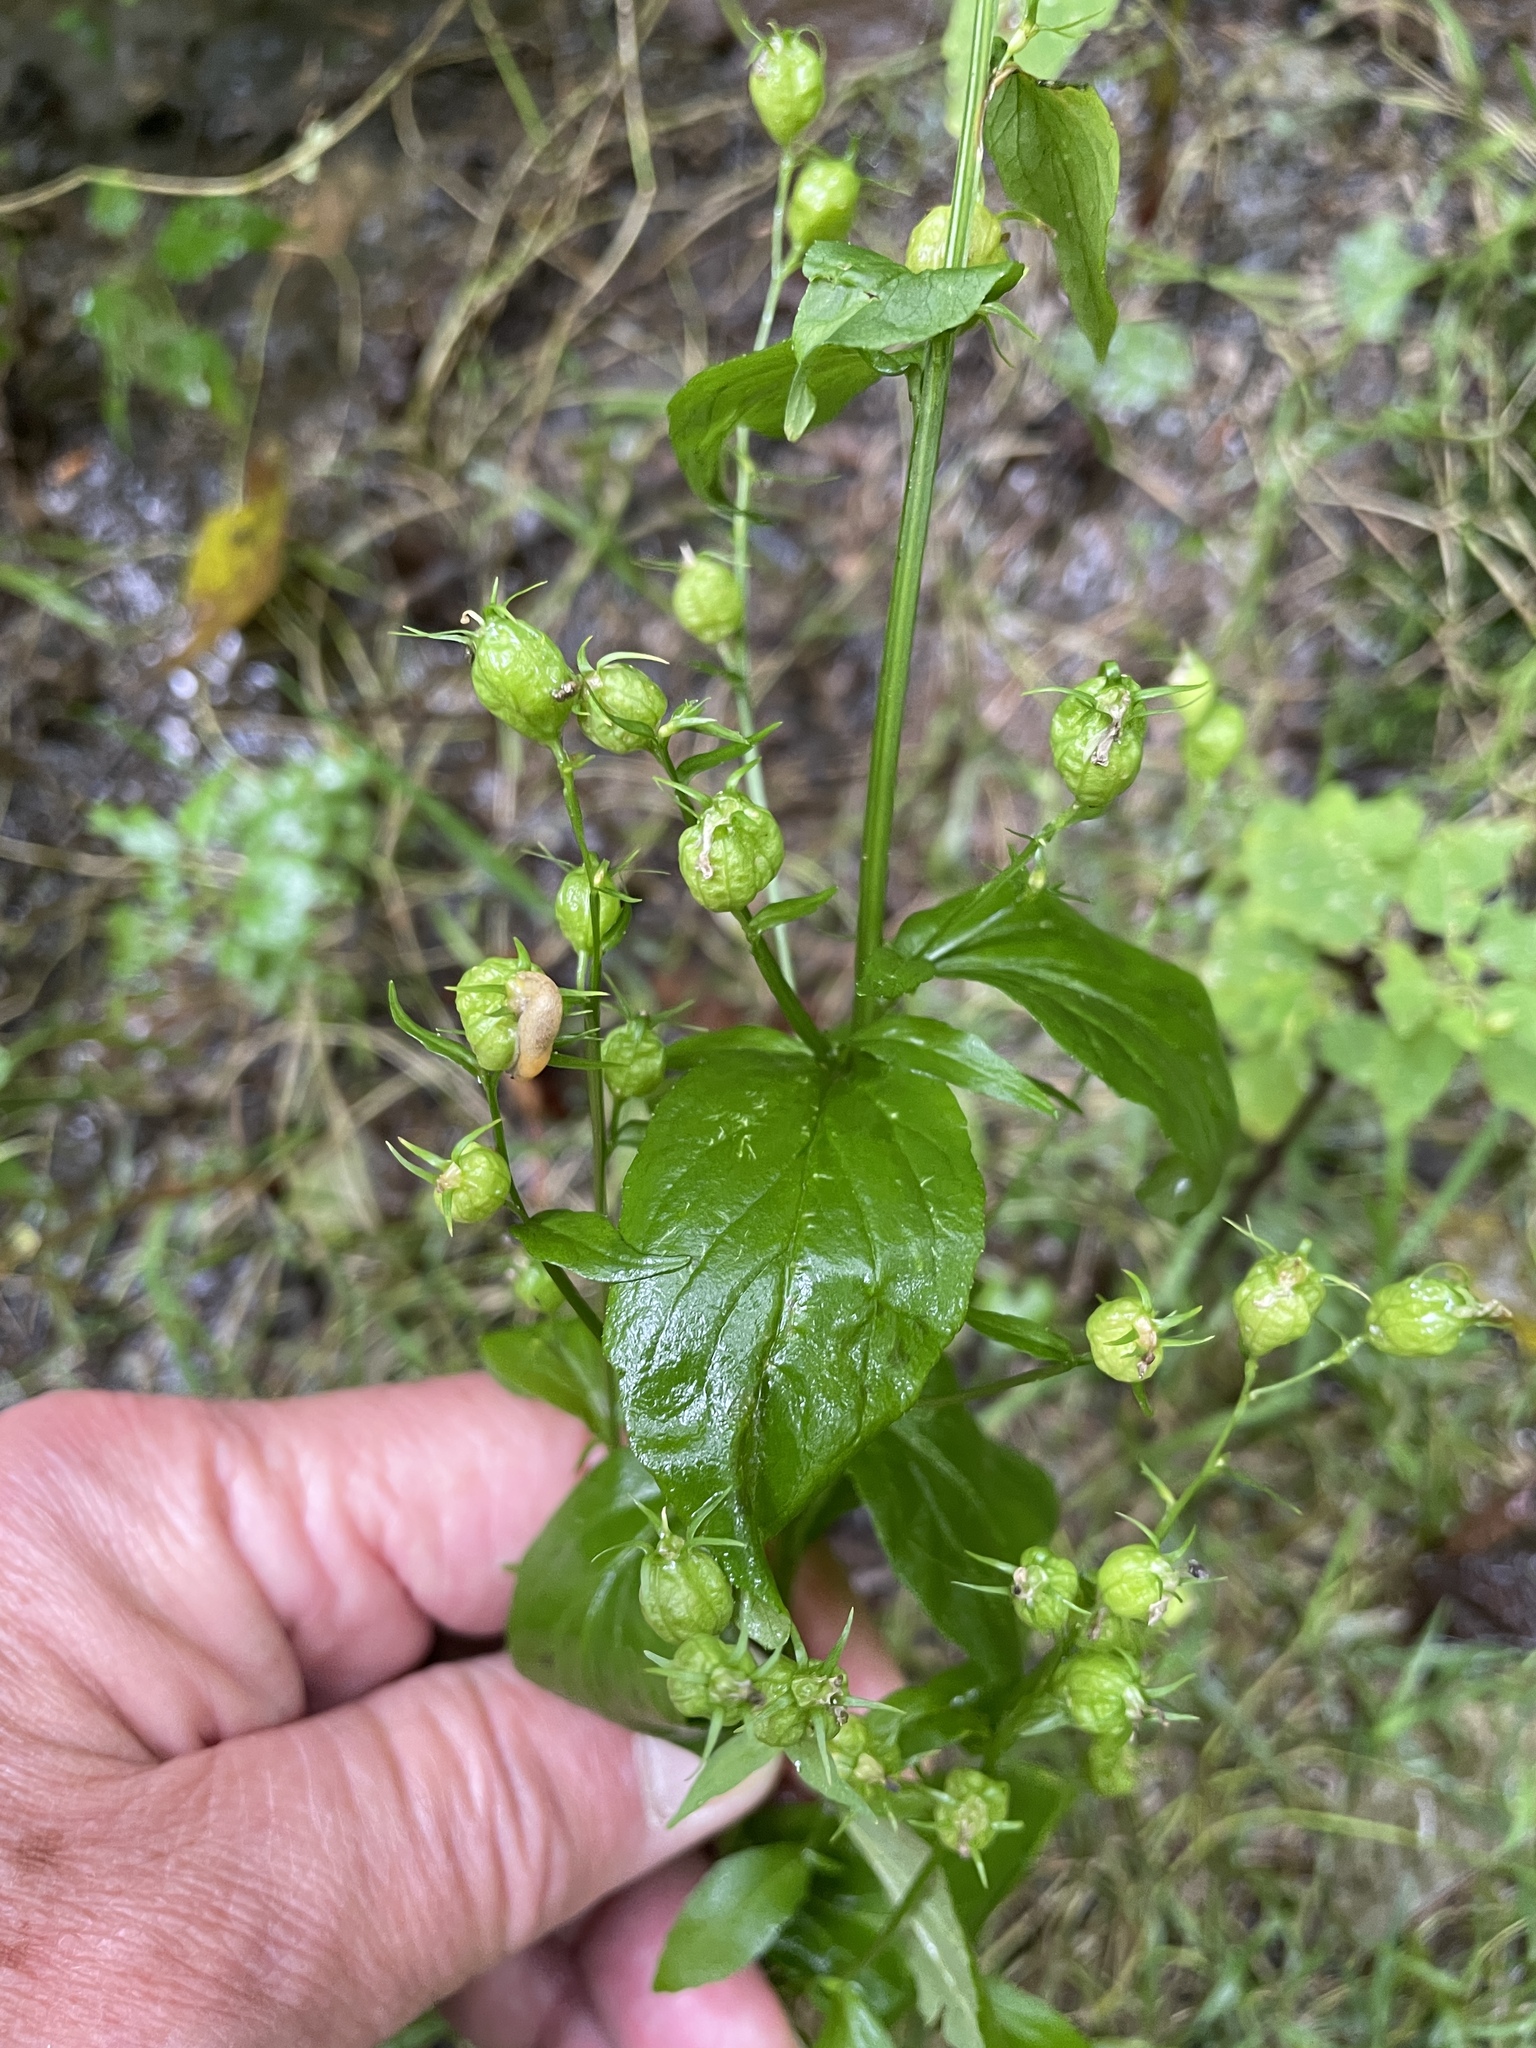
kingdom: Plantae
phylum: Tracheophyta
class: Magnoliopsida
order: Asterales
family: Campanulaceae
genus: Lobelia
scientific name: Lobelia inflata
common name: Indian tobacco
